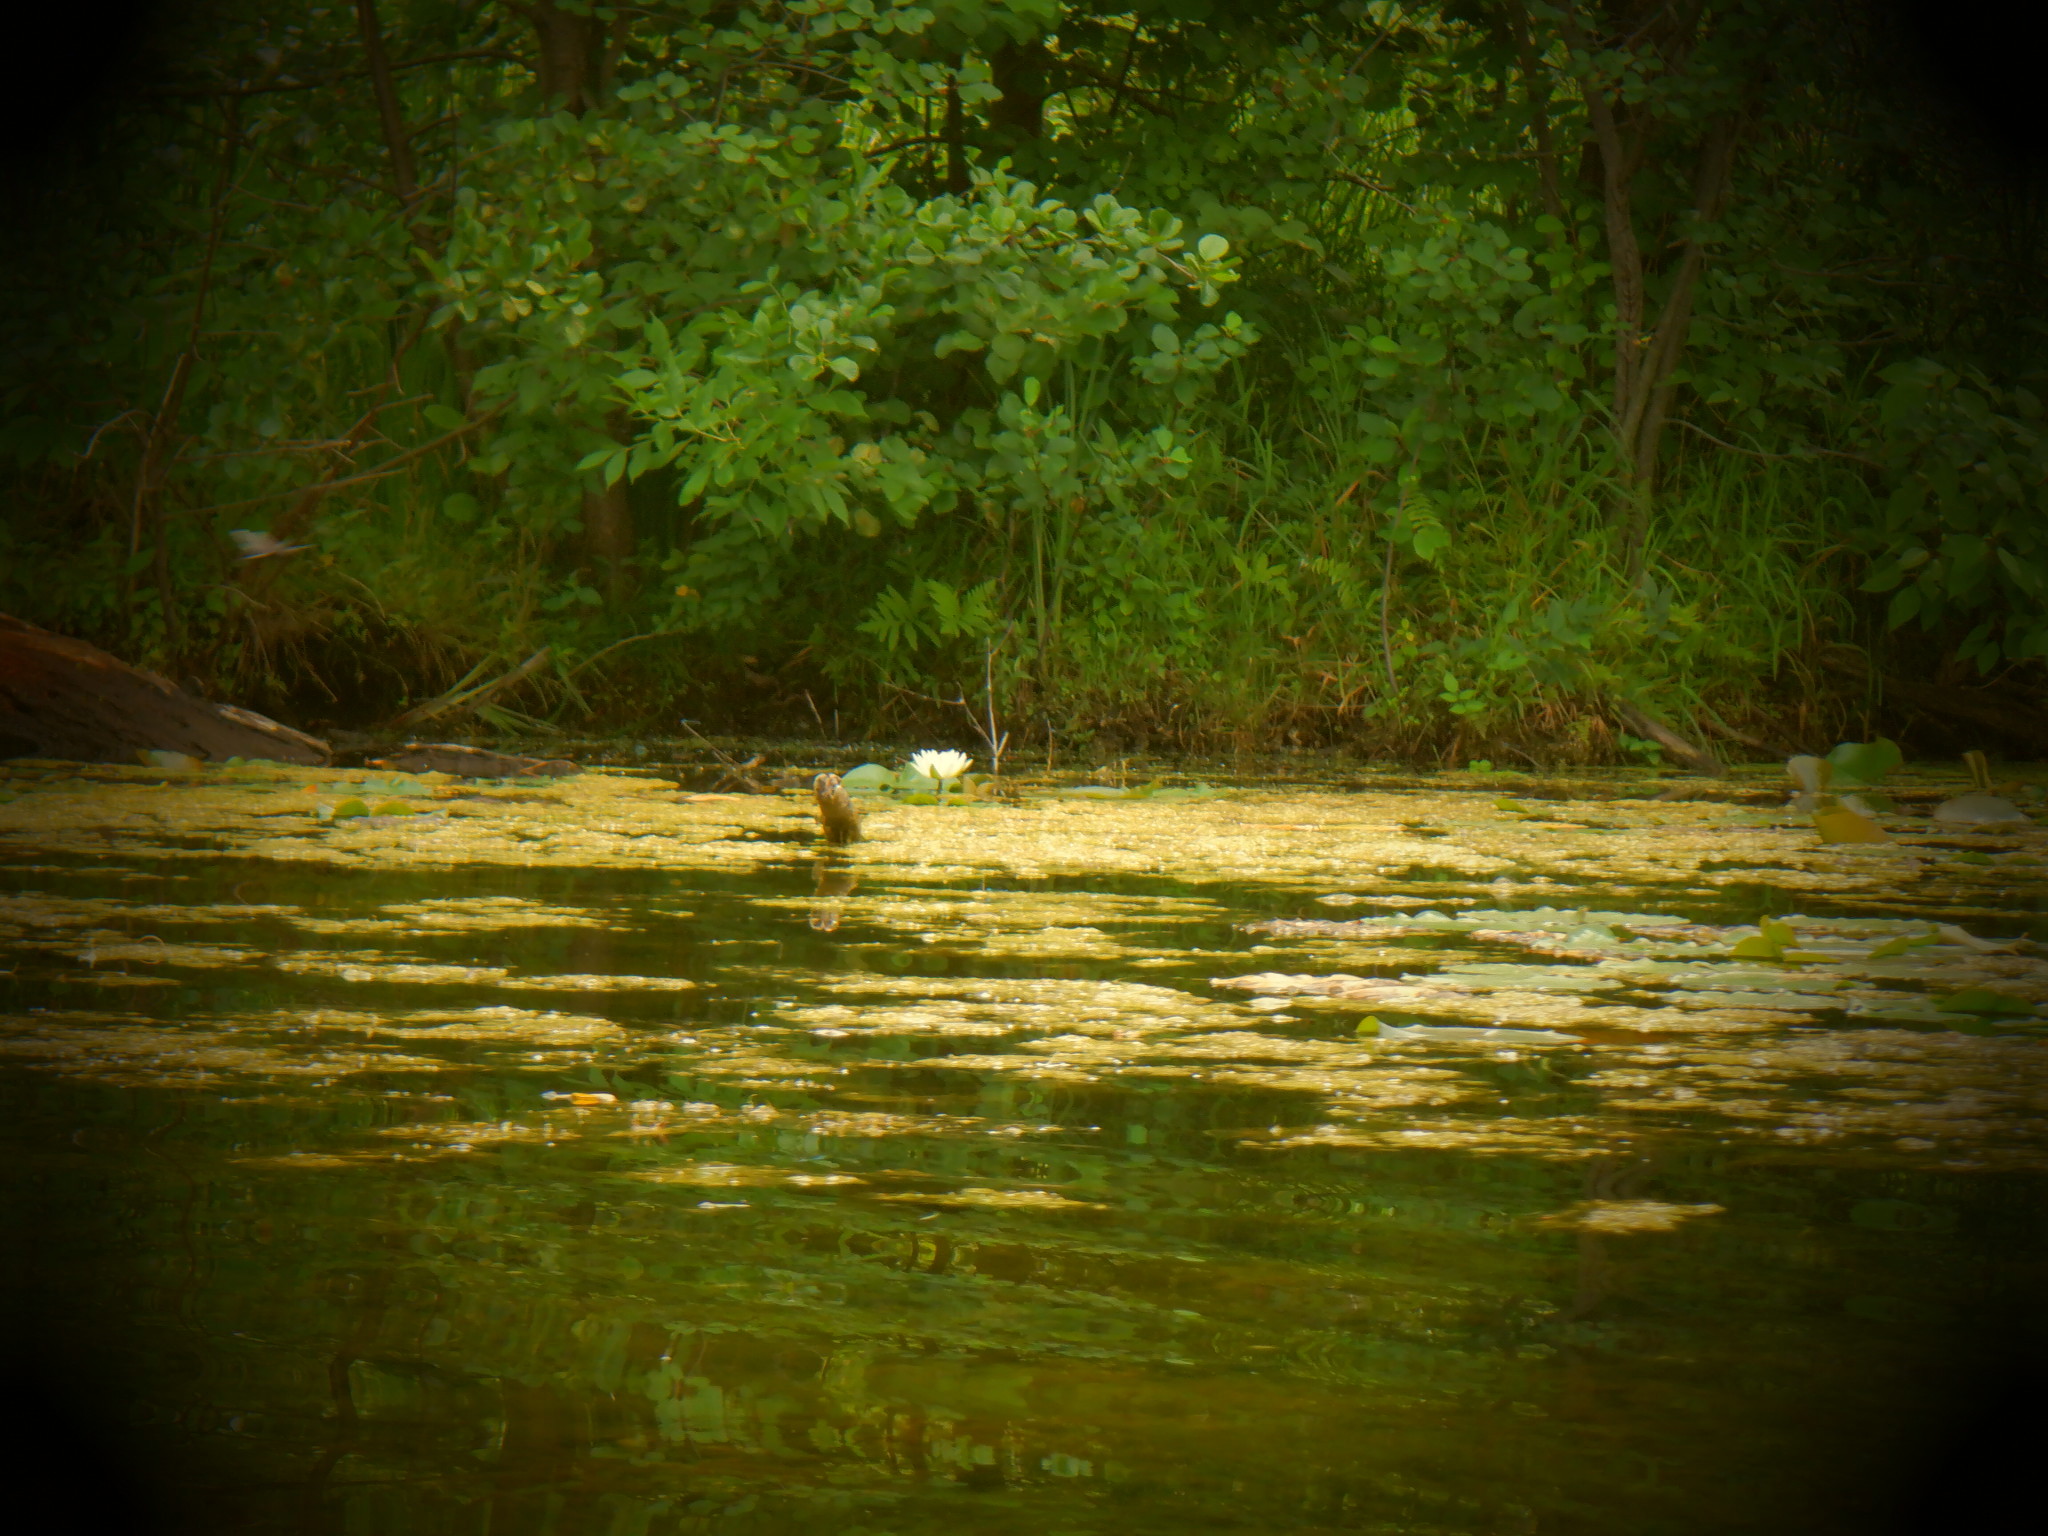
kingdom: Plantae
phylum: Tracheophyta
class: Magnoliopsida
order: Nymphaeales
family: Nymphaeaceae
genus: Nymphaea
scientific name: Nymphaea odorata
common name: Fragrant water-lily
